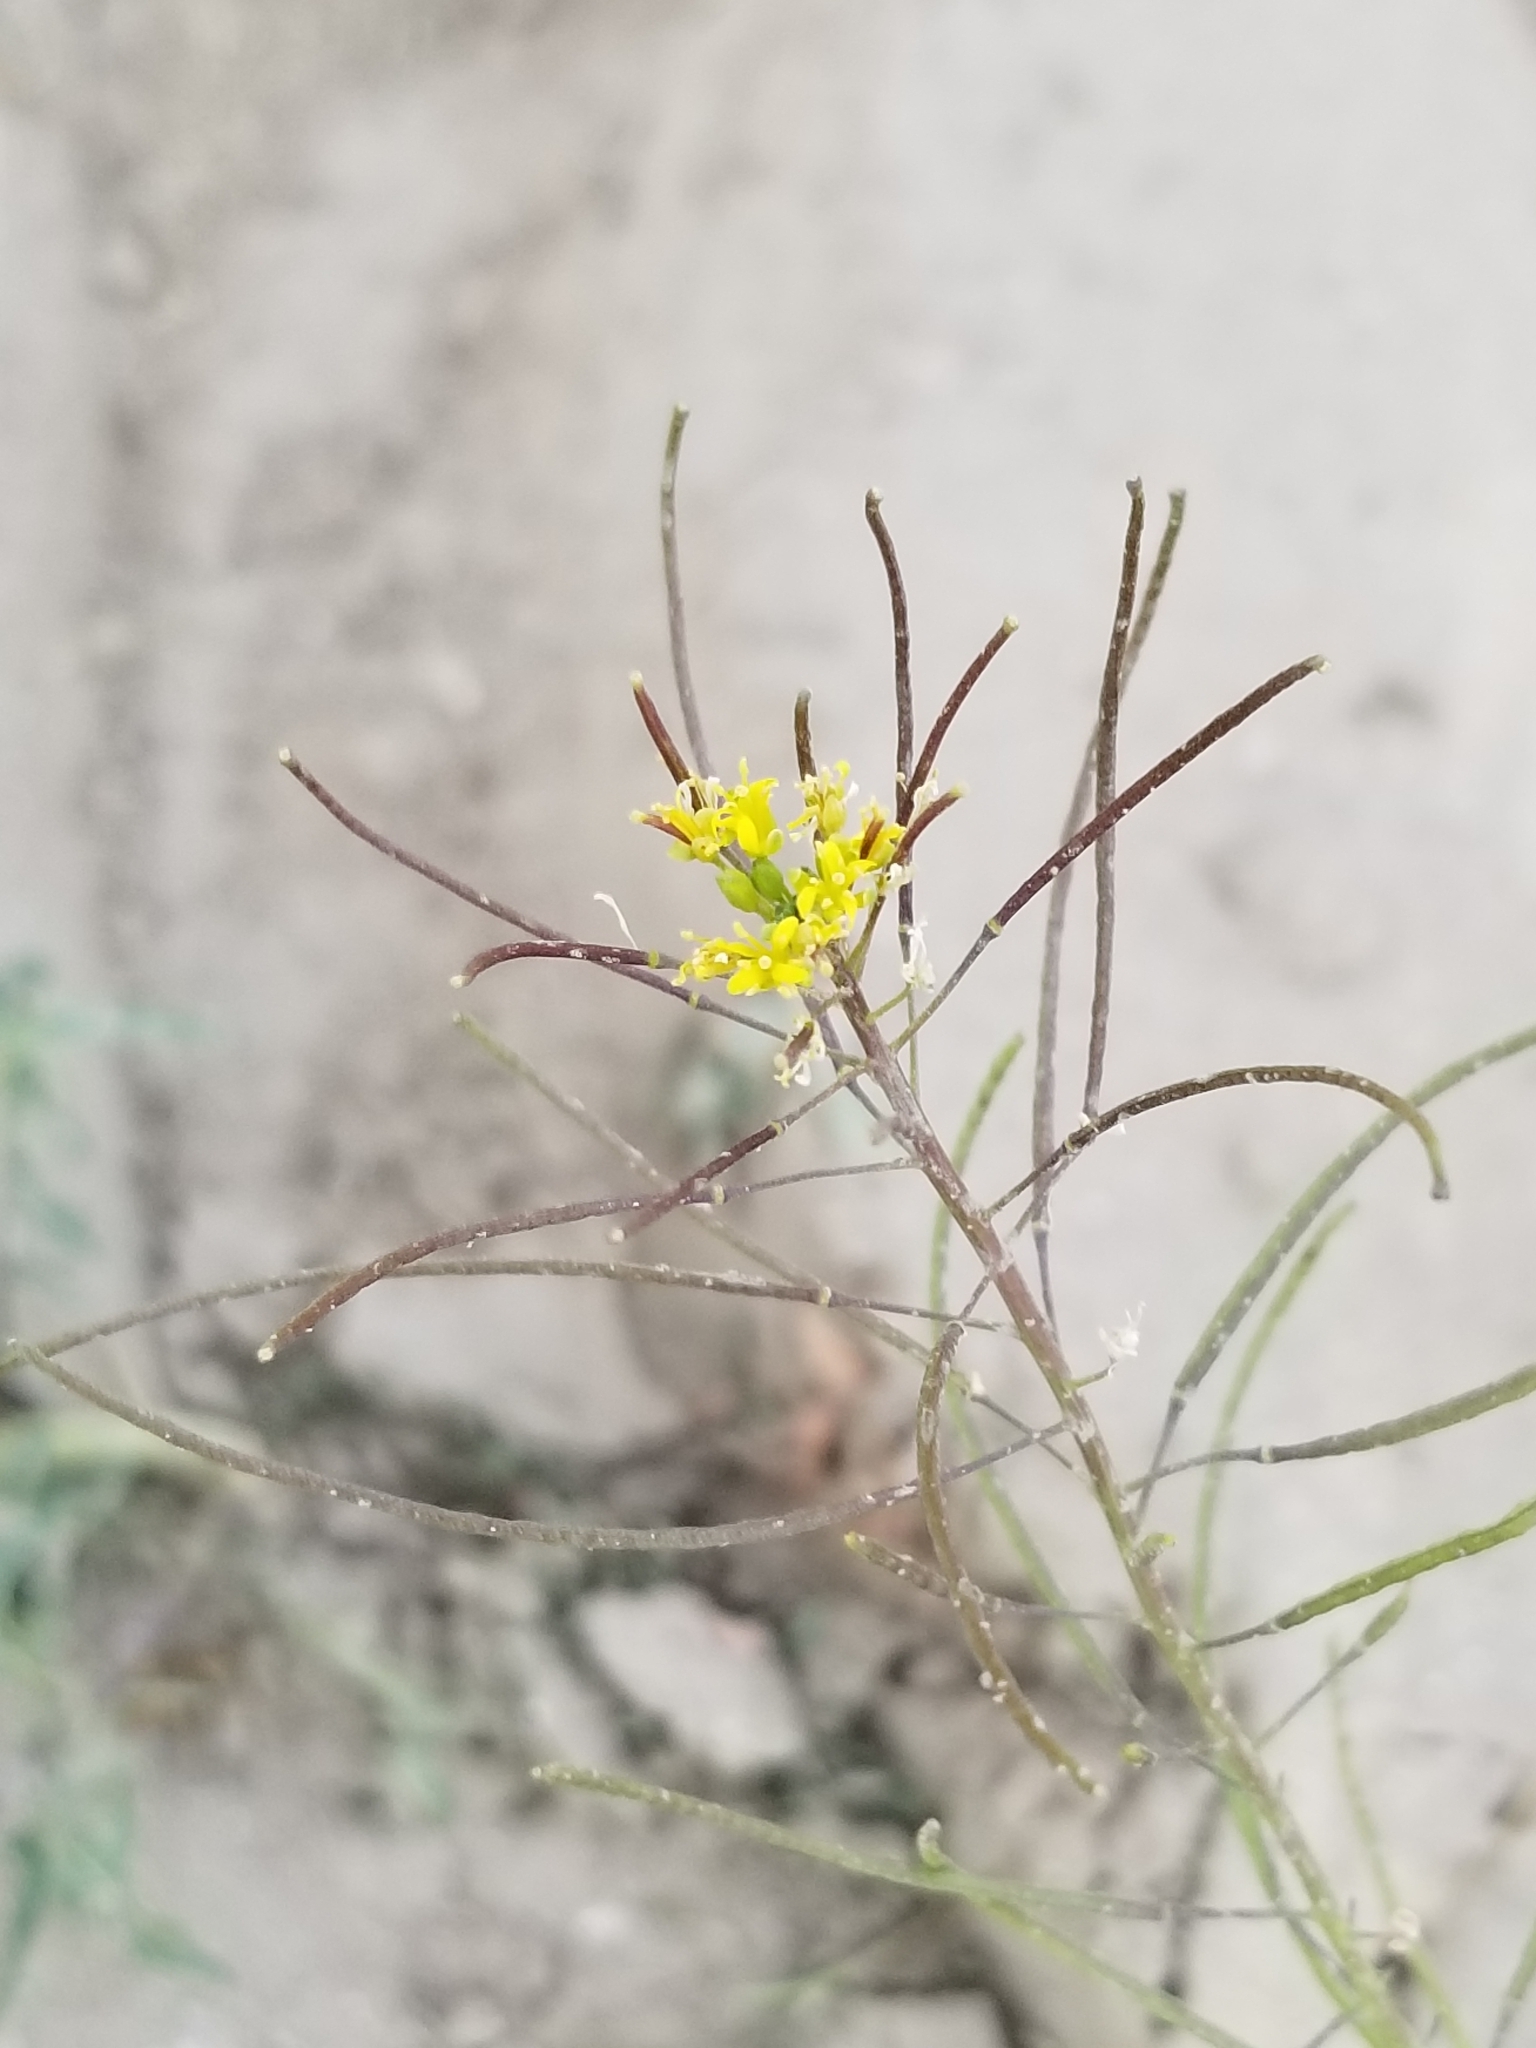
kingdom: Plantae
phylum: Tracheophyta
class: Magnoliopsida
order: Brassicales
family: Brassicaceae
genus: Sisymbrium
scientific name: Sisymbrium irio
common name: London rocket
